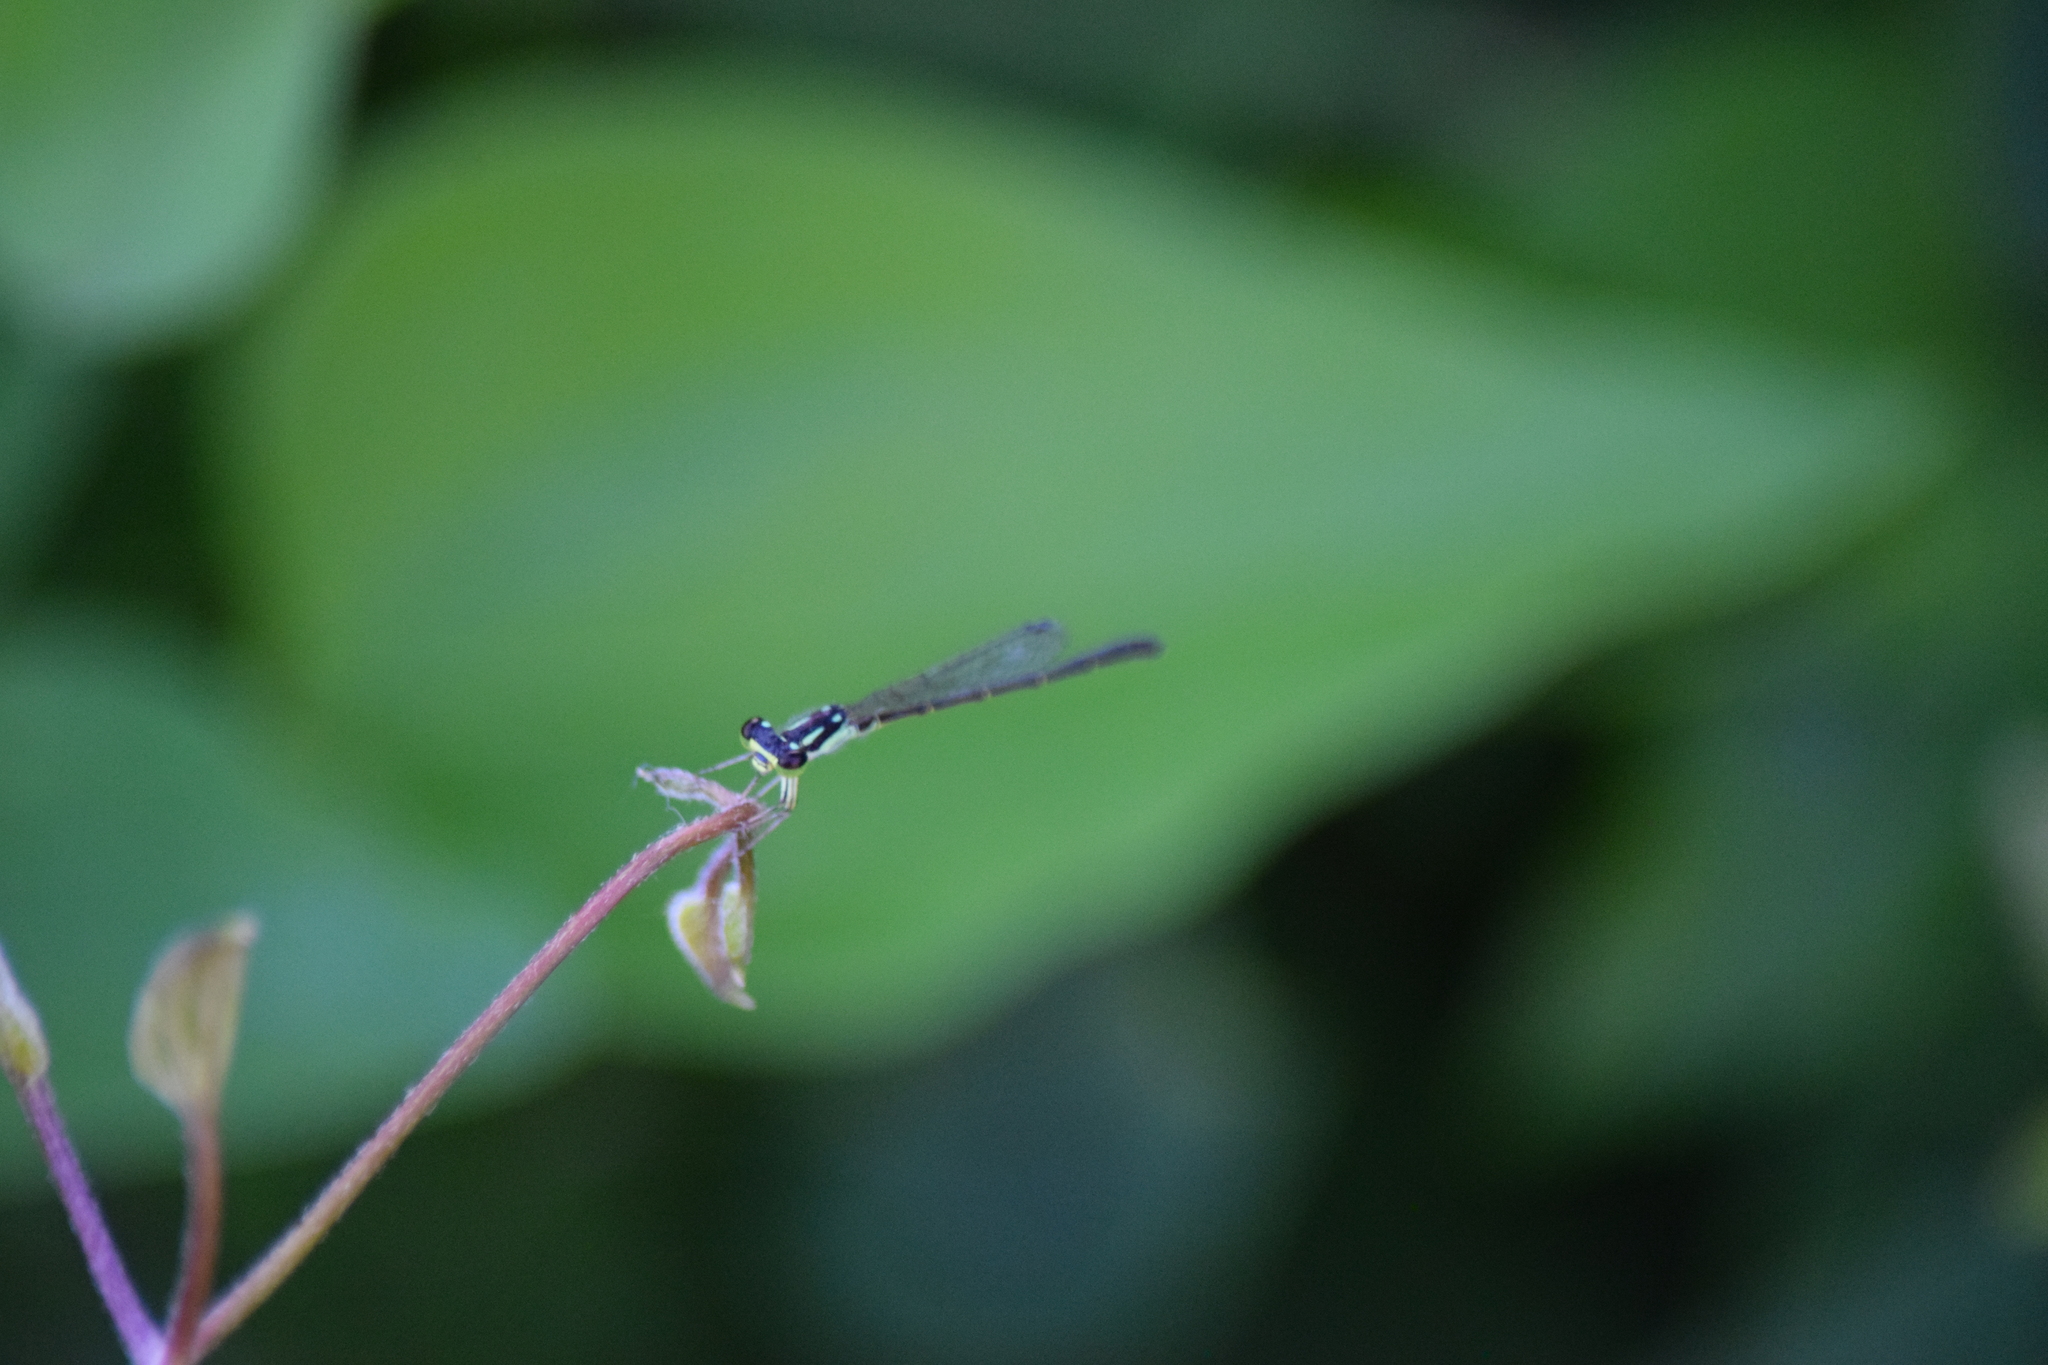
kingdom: Animalia
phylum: Arthropoda
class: Insecta
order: Odonata
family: Coenagrionidae
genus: Ischnura
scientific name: Ischnura posita
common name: Fragile forktail
